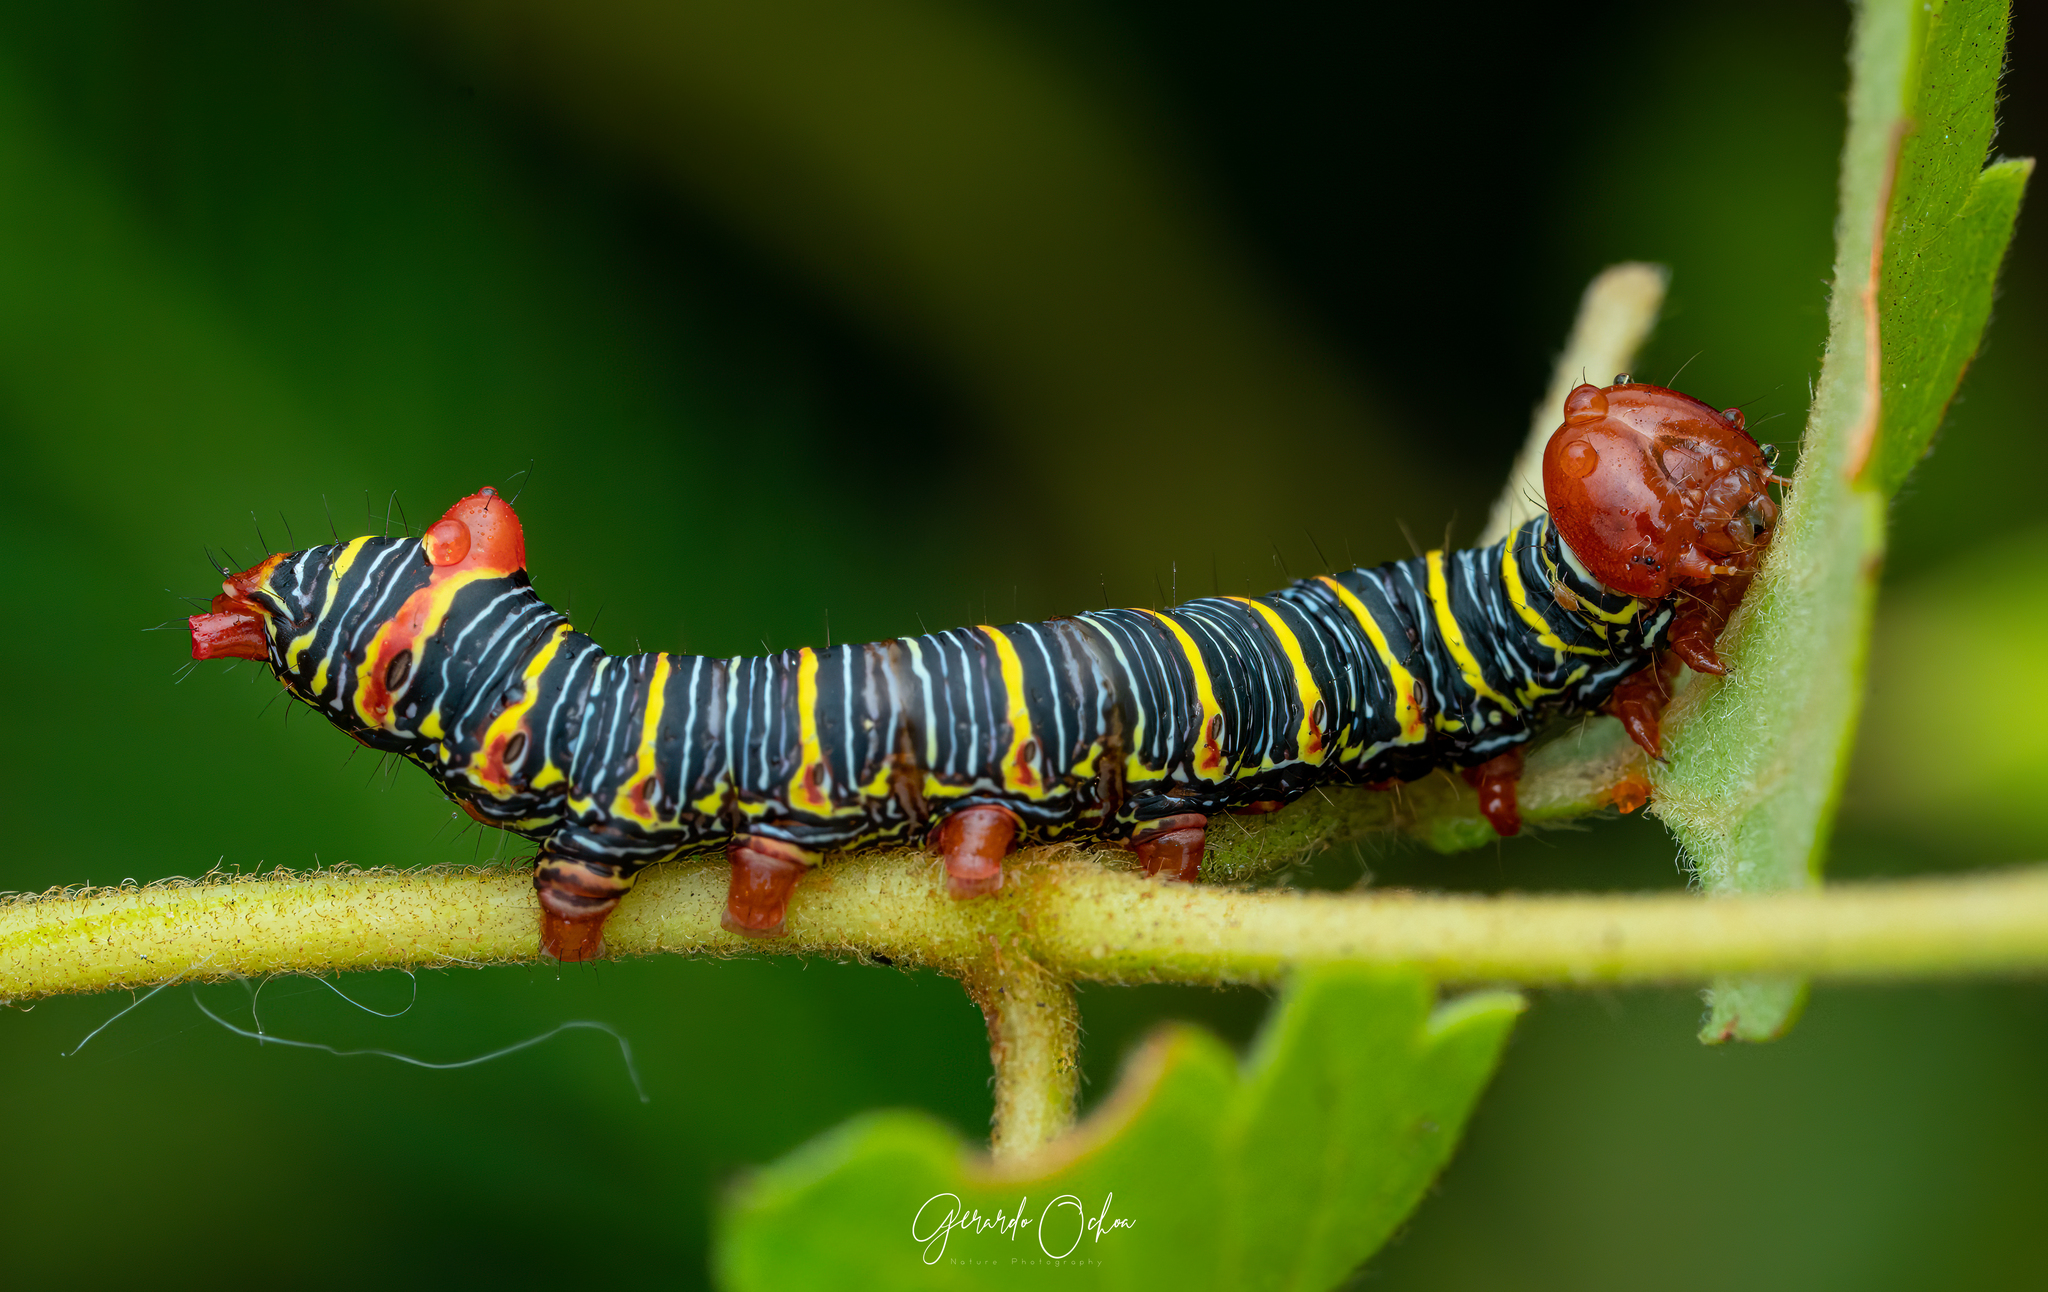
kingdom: Animalia
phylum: Arthropoda
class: Insecta
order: Lepidoptera
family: Notodontidae
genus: Didugua
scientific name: Didugua argentilinea
